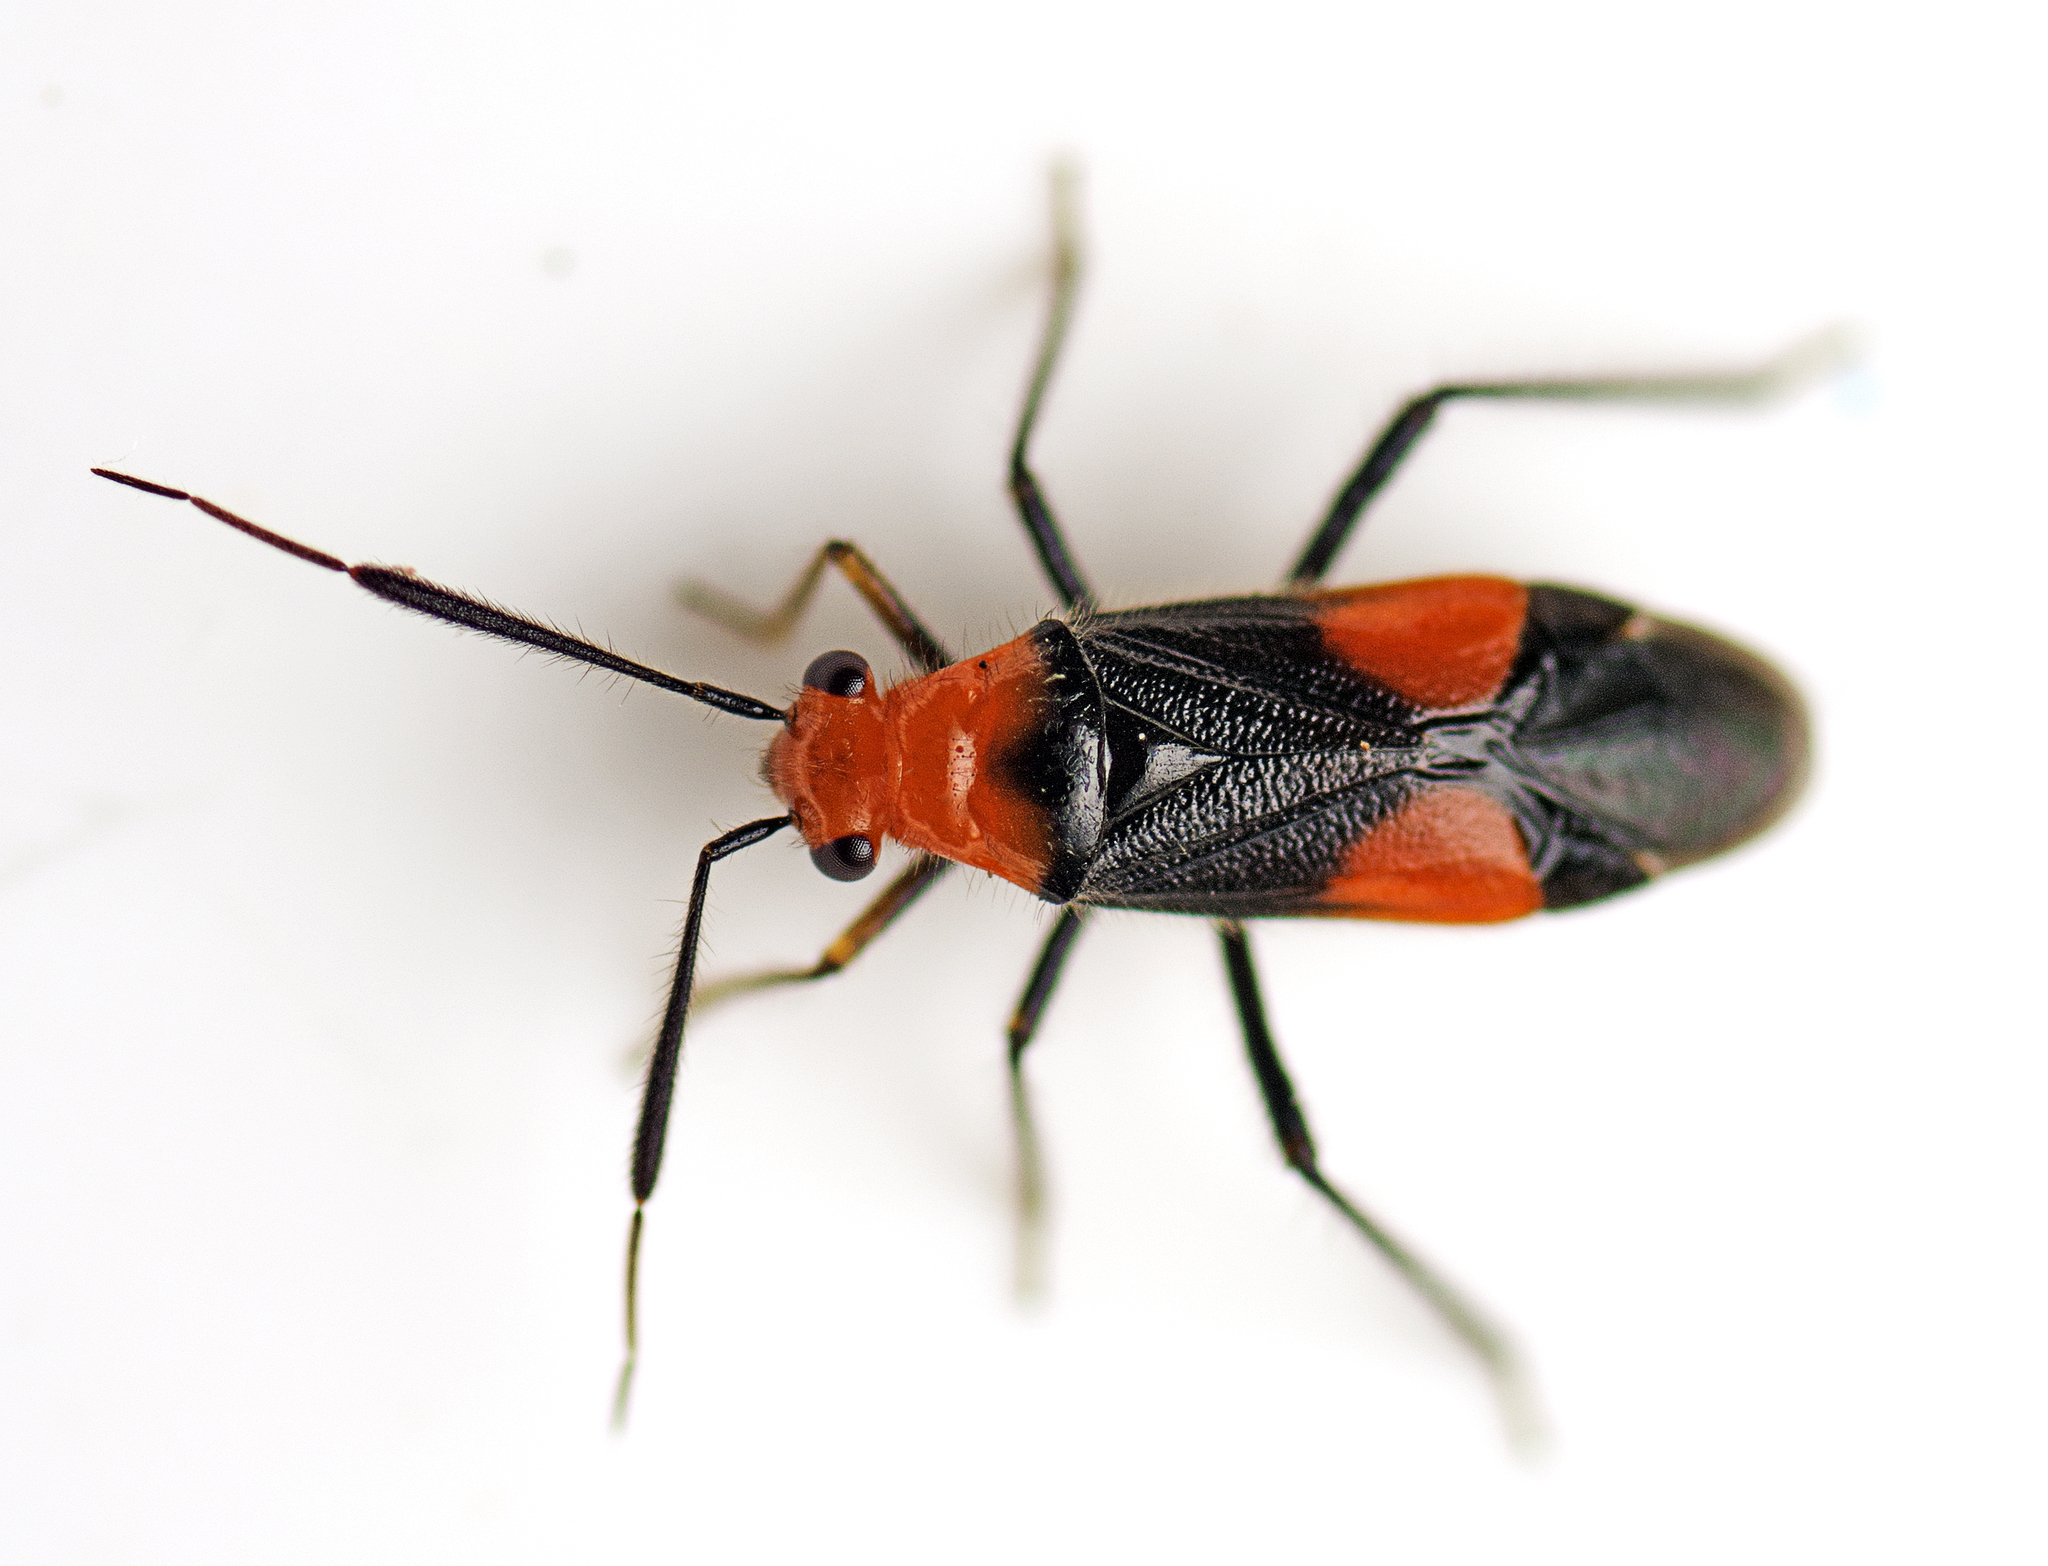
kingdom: Animalia
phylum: Arthropoda
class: Insecta
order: Hemiptera
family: Miridae
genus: Trilaccus
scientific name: Trilaccus nigroruber
